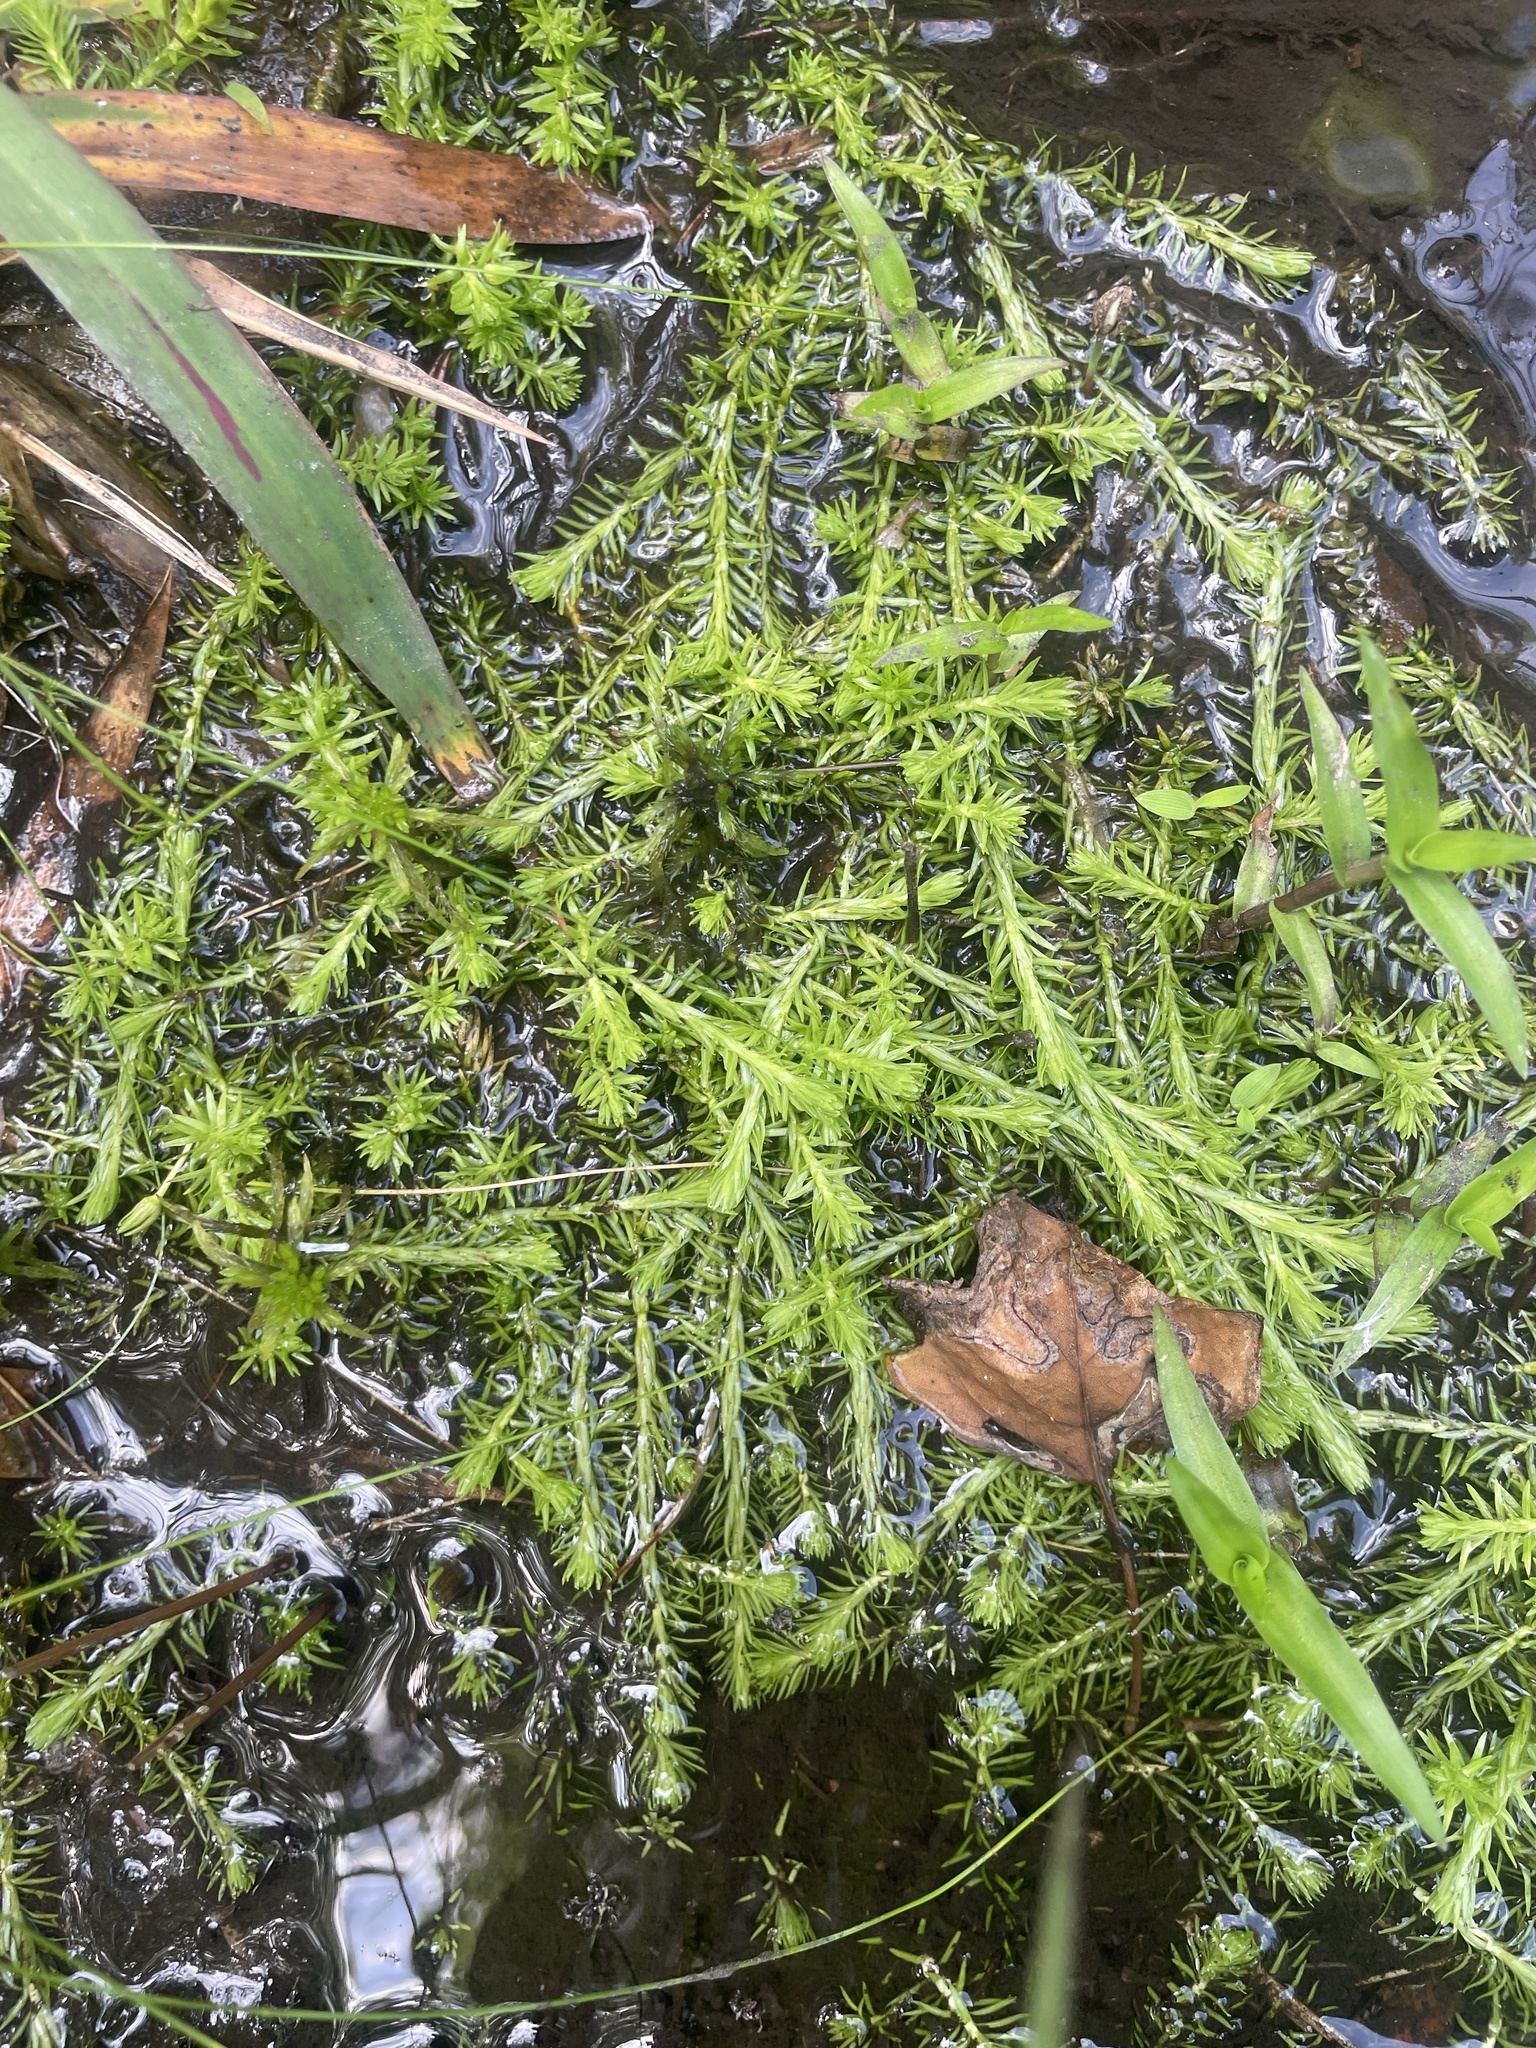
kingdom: Plantae
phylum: Tracheophyta
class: Liliopsida
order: Poales
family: Mayacaceae
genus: Mayaca
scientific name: Mayaca fluviatilis
